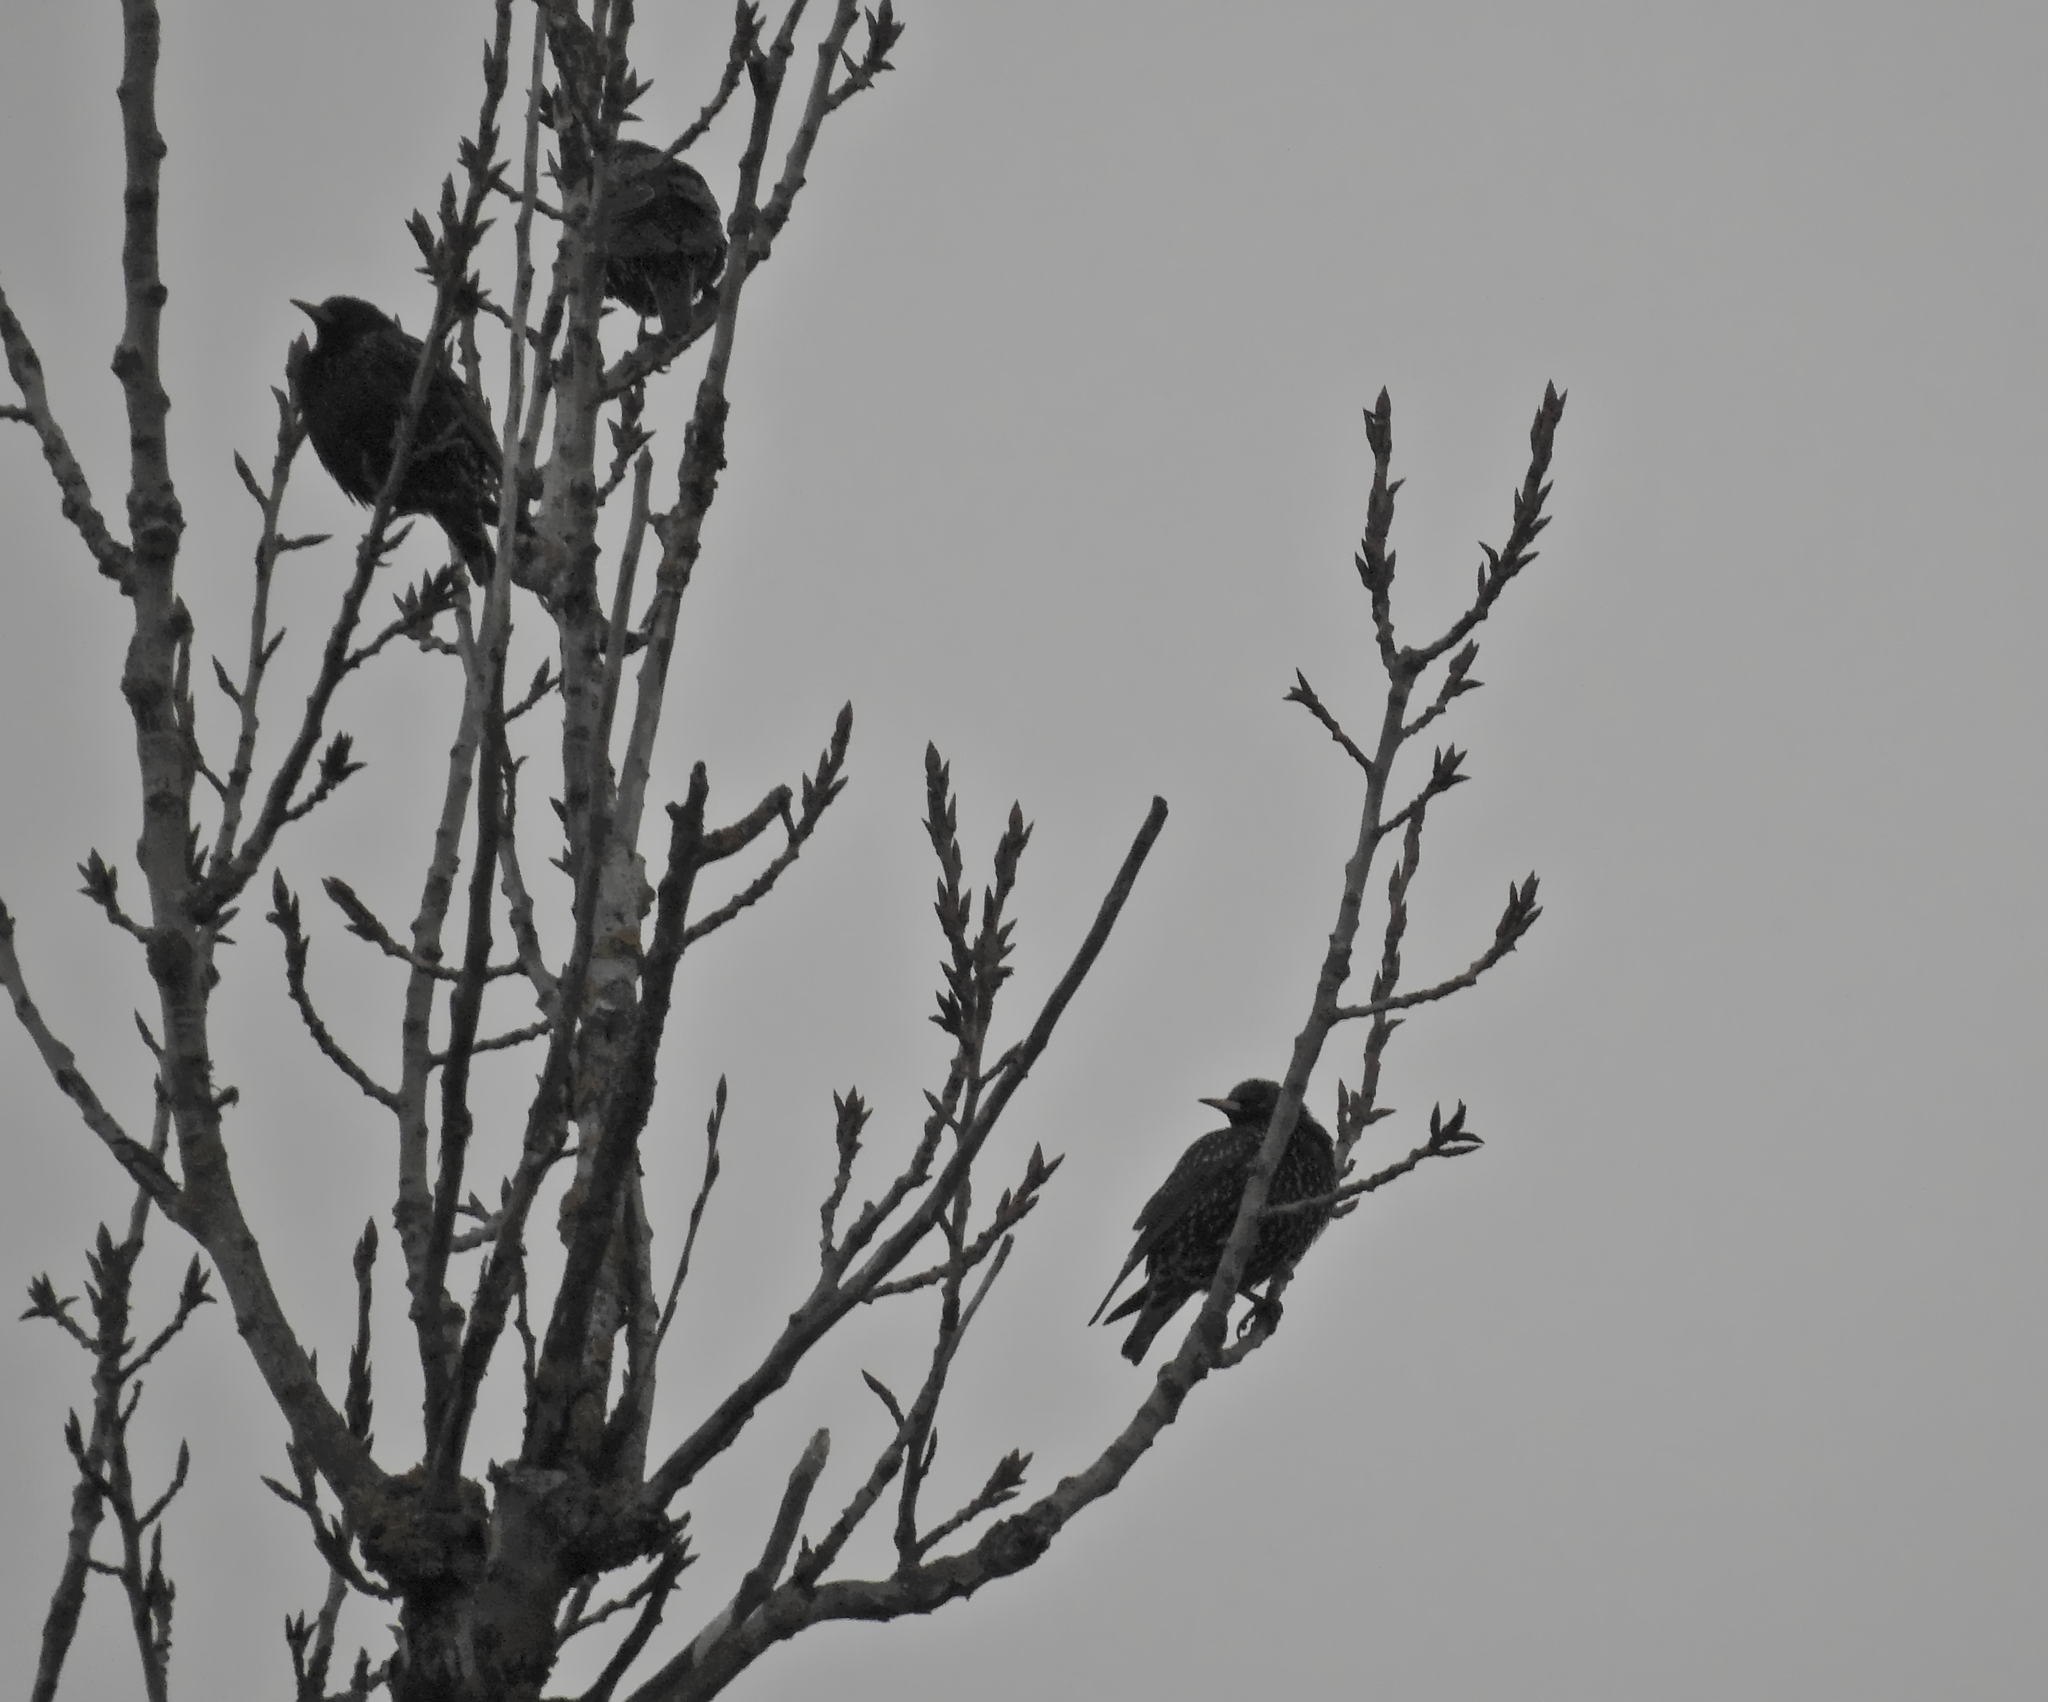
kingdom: Animalia
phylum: Chordata
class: Aves
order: Passeriformes
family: Sturnidae
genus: Sturnus
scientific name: Sturnus vulgaris
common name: Common starling
